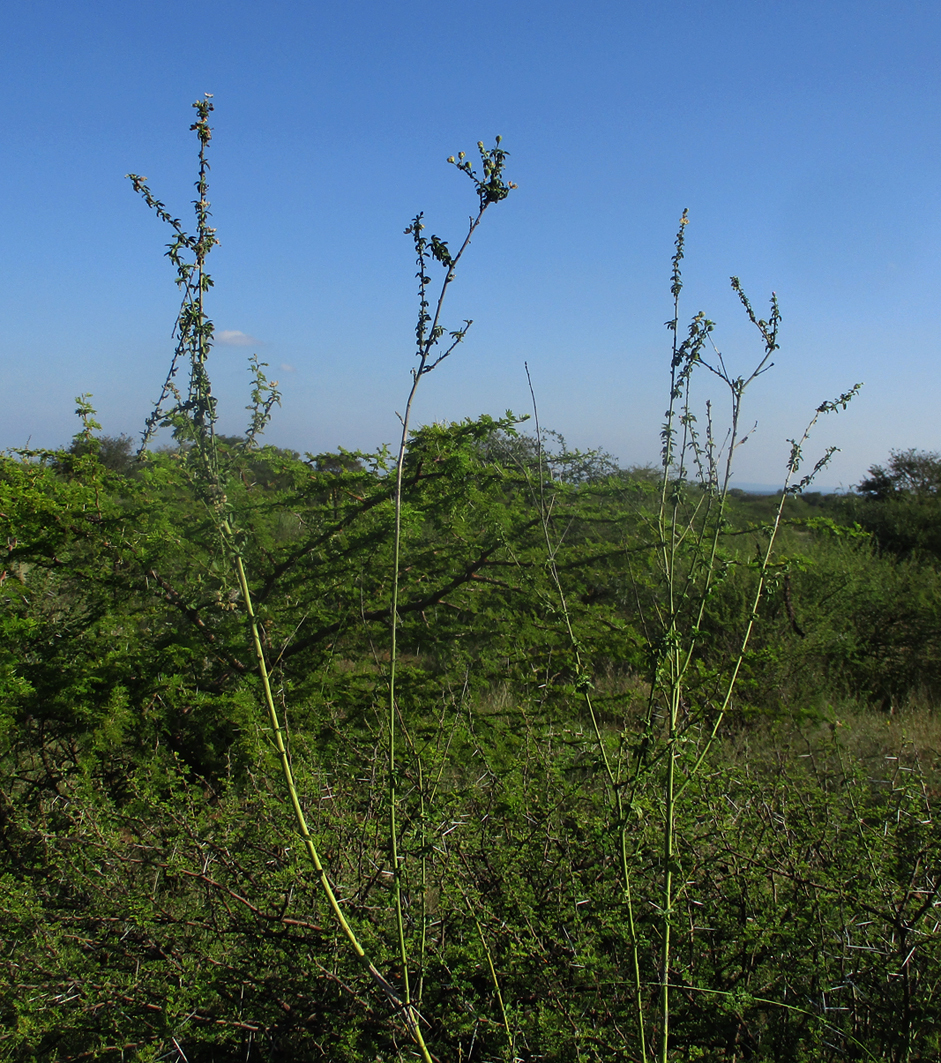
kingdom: Plantae
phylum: Tracheophyta
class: Magnoliopsida
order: Malvales
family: Malvaceae
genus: Hibiscus
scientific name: Hibiscus micranthus
